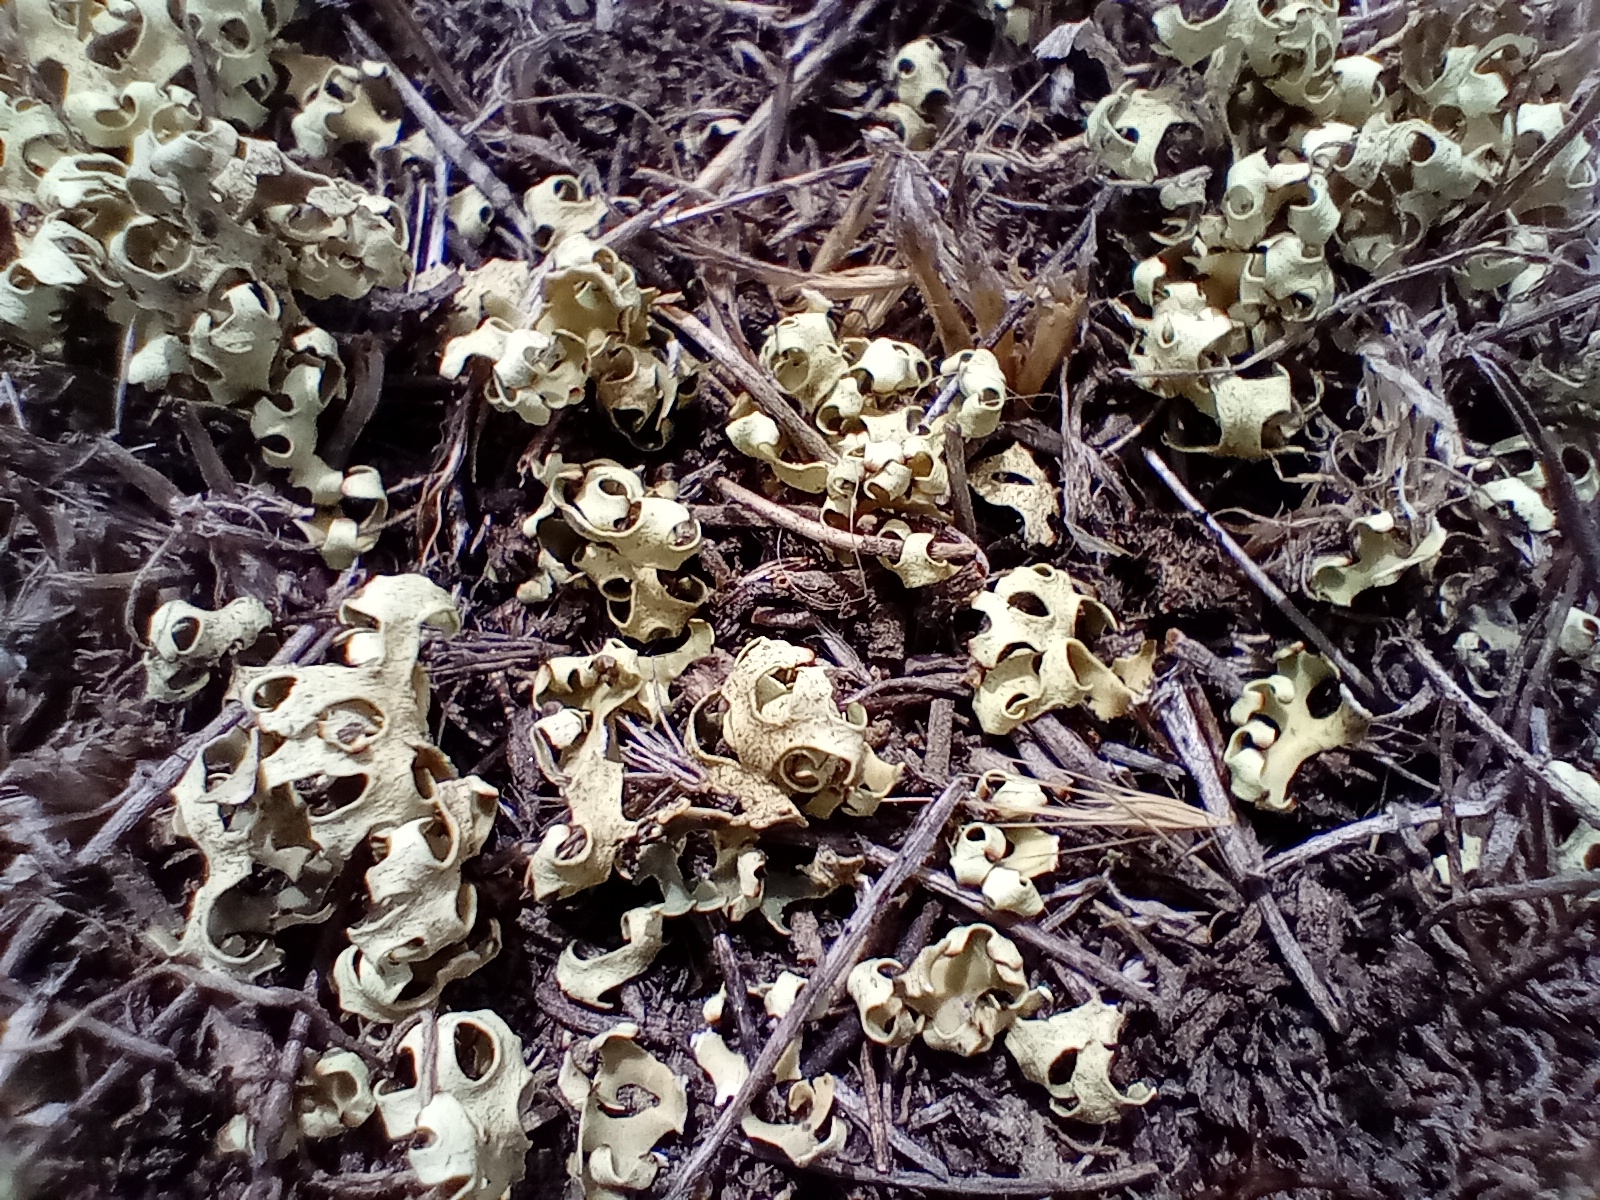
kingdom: Fungi
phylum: Ascomycota
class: Lecanoromycetes
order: Lecanorales
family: Parmeliaceae
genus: Xanthoparmelia
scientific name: Xanthoparmelia semiviridis
